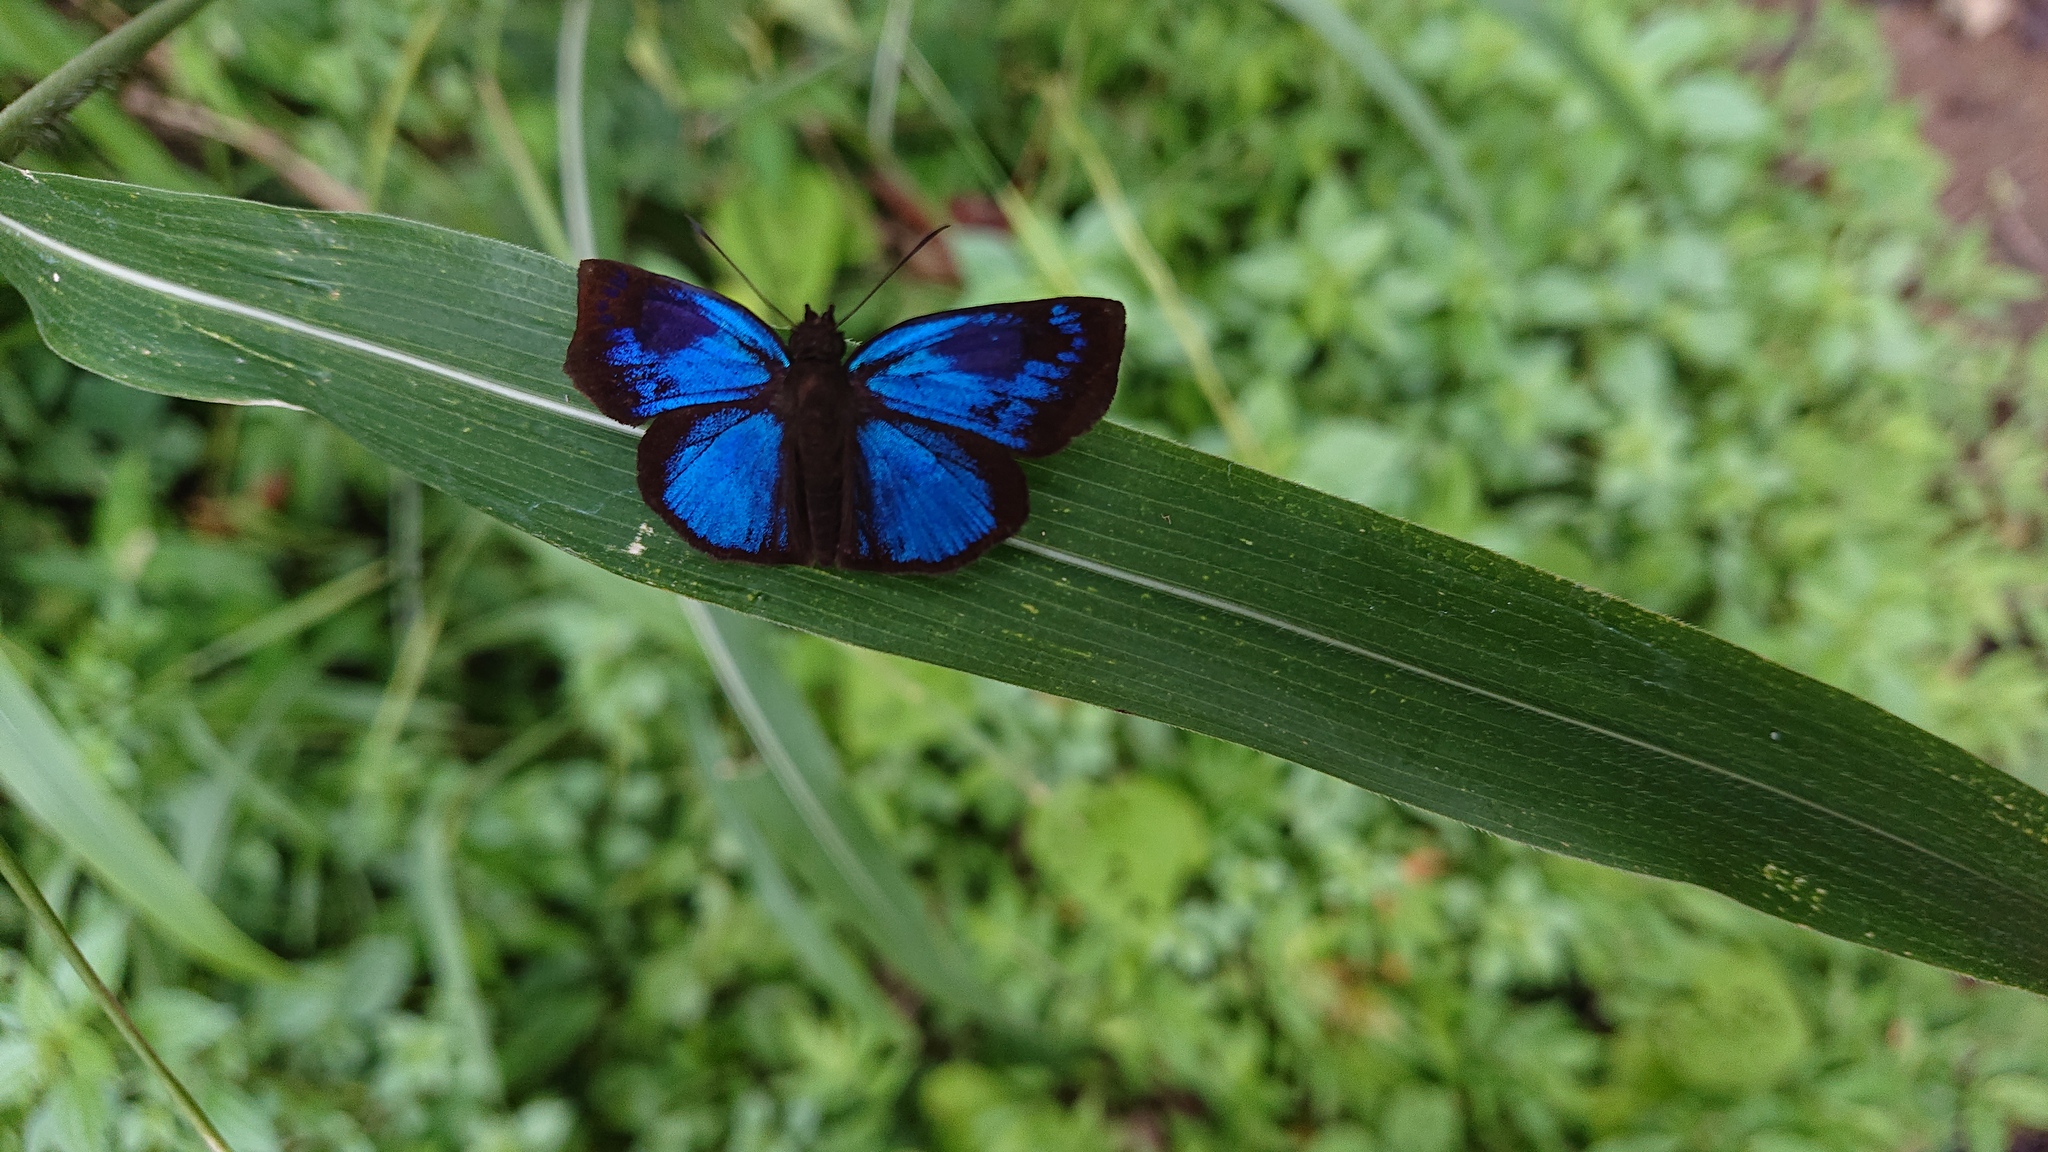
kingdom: Animalia
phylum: Arthropoda
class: Insecta
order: Lepidoptera
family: Hesperiidae
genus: Paches
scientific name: Paches loxus
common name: Glorious blue-skipper
